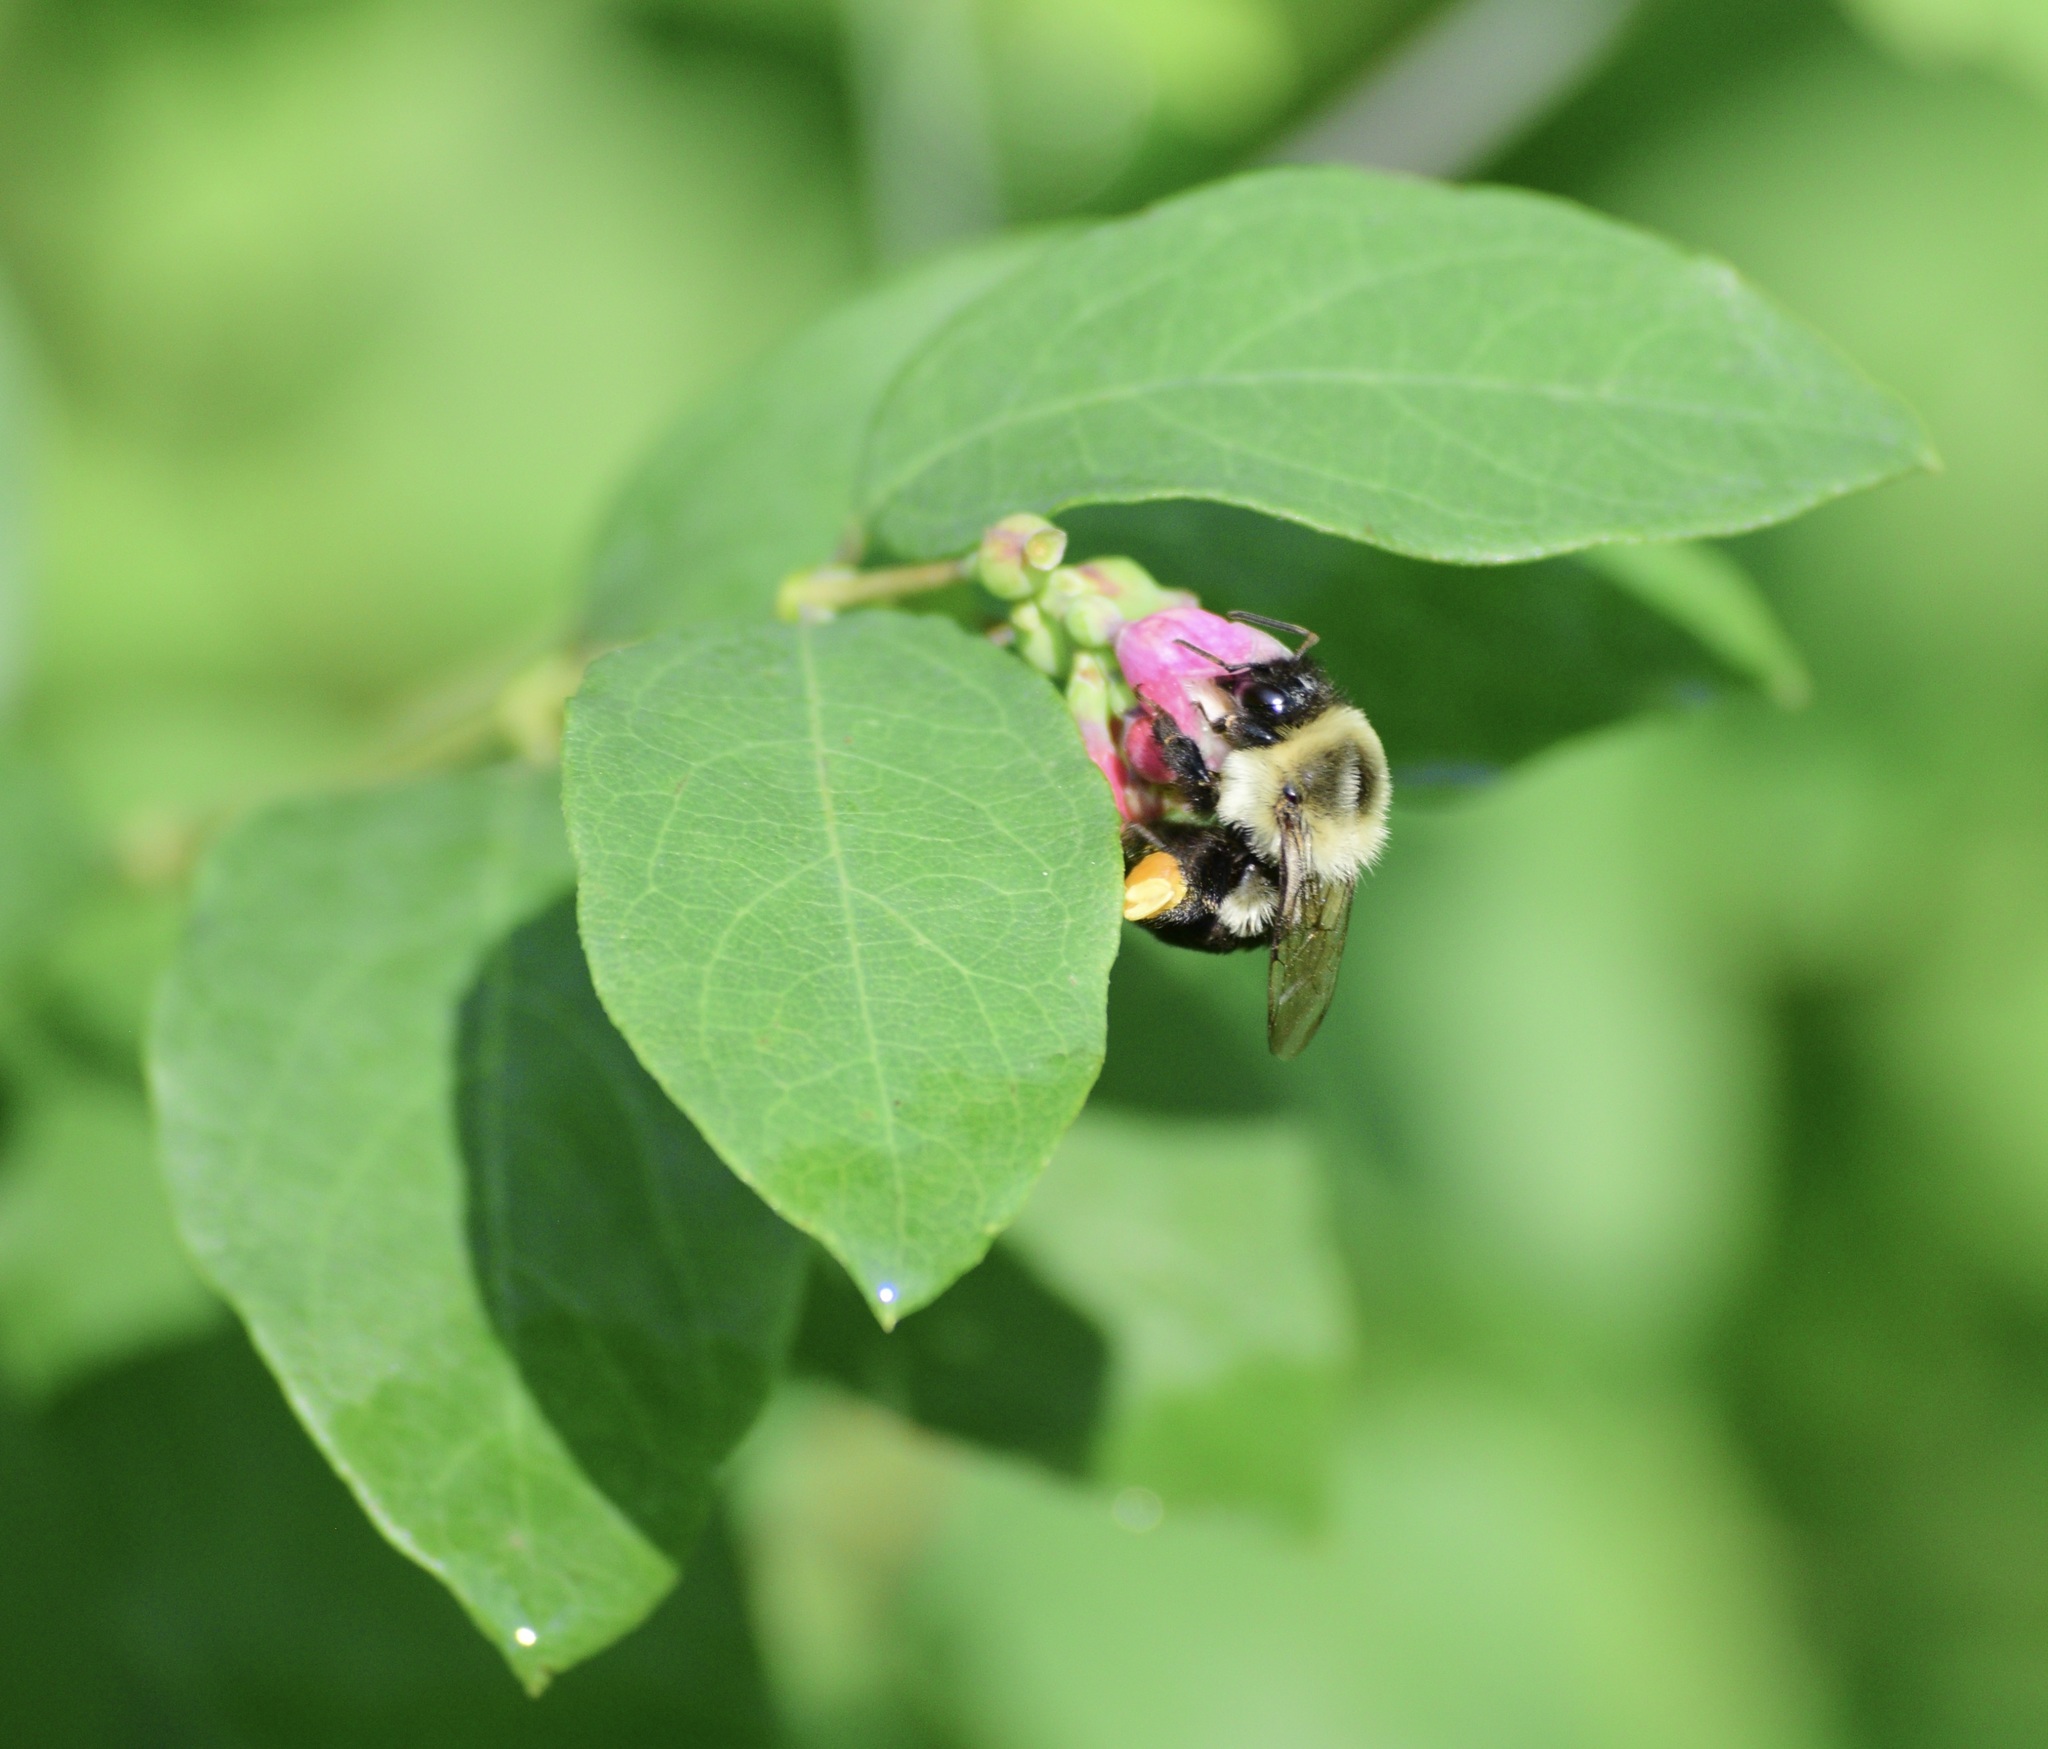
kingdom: Animalia
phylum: Arthropoda
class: Insecta
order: Hymenoptera
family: Apidae
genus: Bombus
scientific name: Bombus impatiens
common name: Common eastern bumble bee
